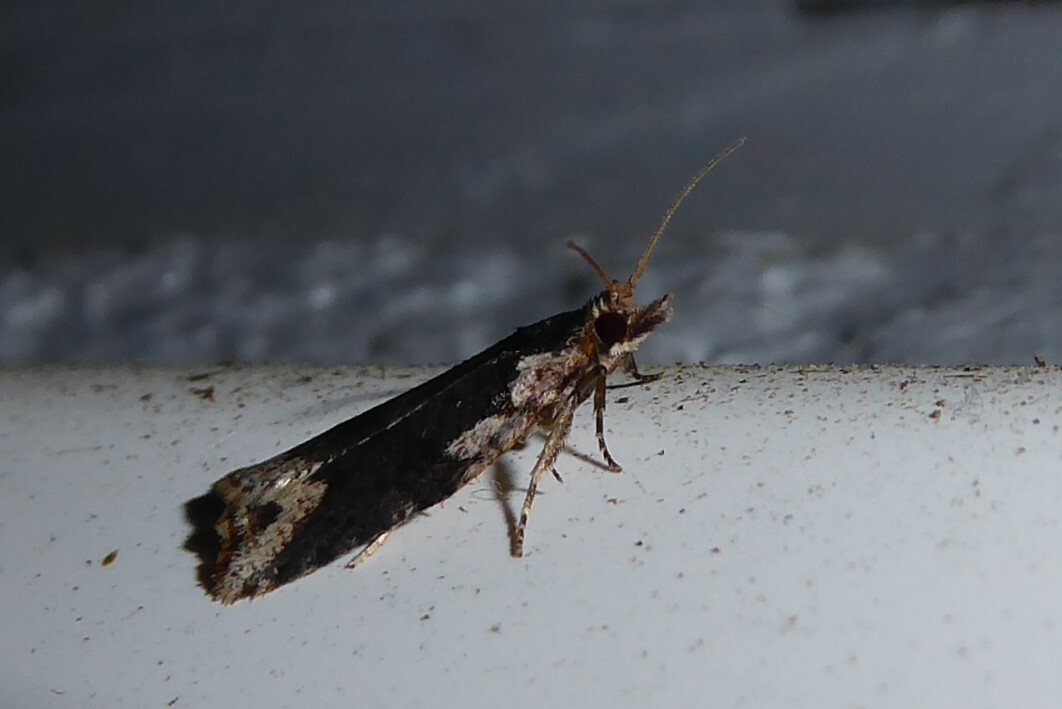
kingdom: Animalia
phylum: Arthropoda
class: Insecta
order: Lepidoptera
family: Tortricidae
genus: Ctenopseustis
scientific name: Ctenopseustis obliquana
